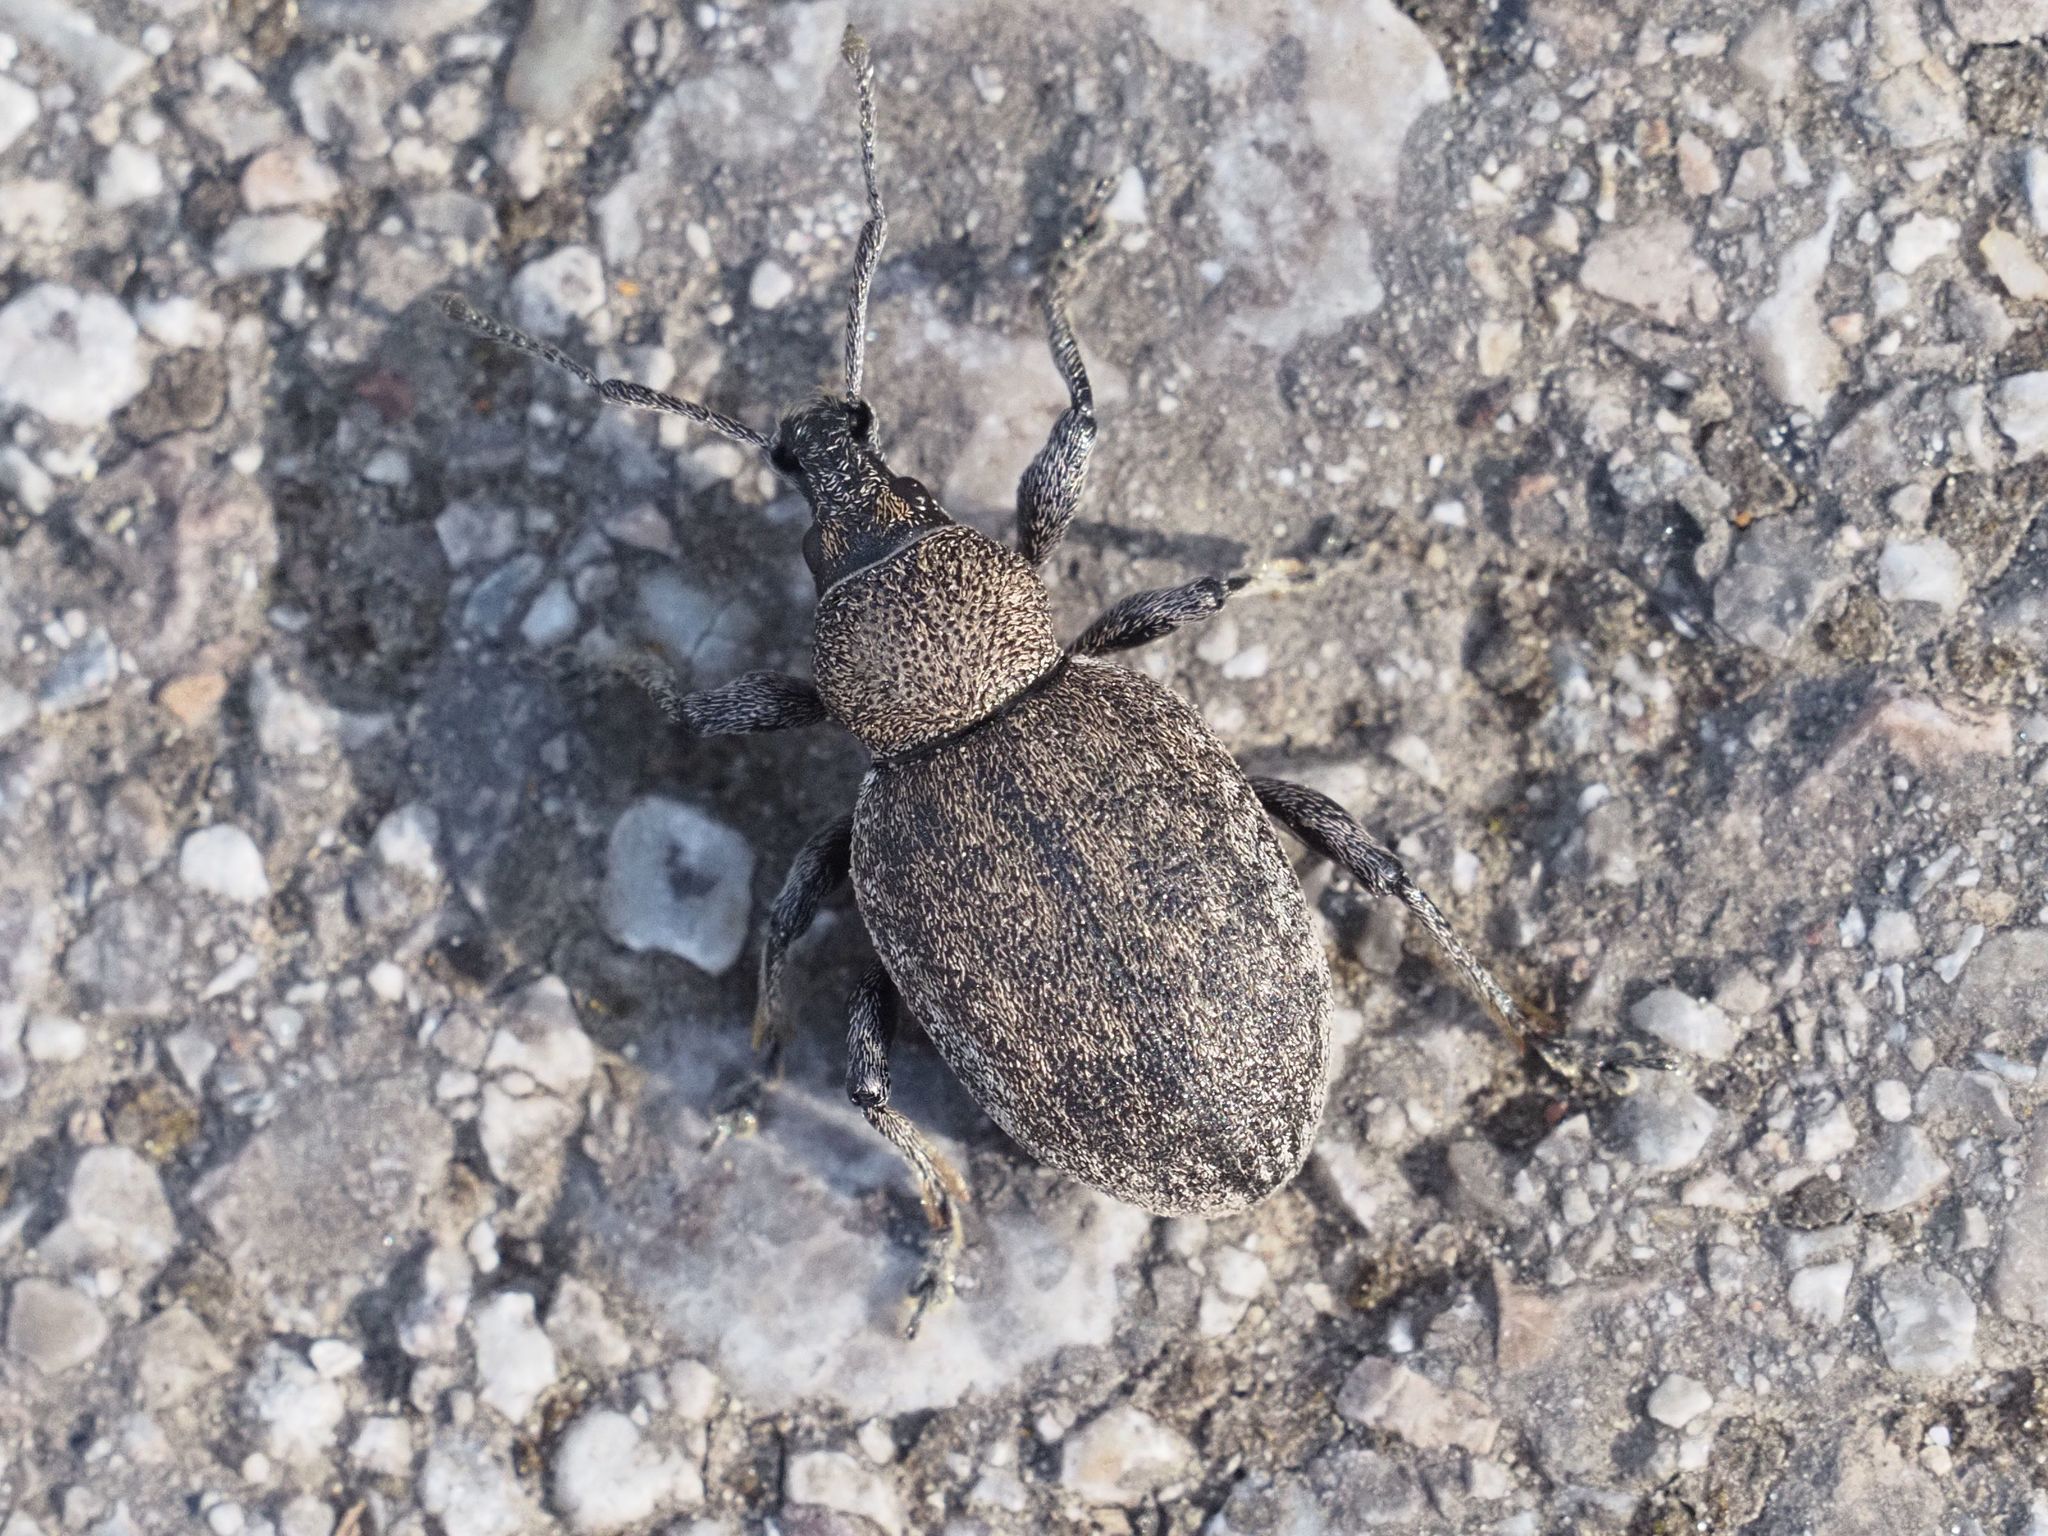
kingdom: Animalia
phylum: Arthropoda
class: Insecta
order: Coleoptera
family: Curculionidae
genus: Otiorhynchus
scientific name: Otiorhynchus ligustici
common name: Weevil
